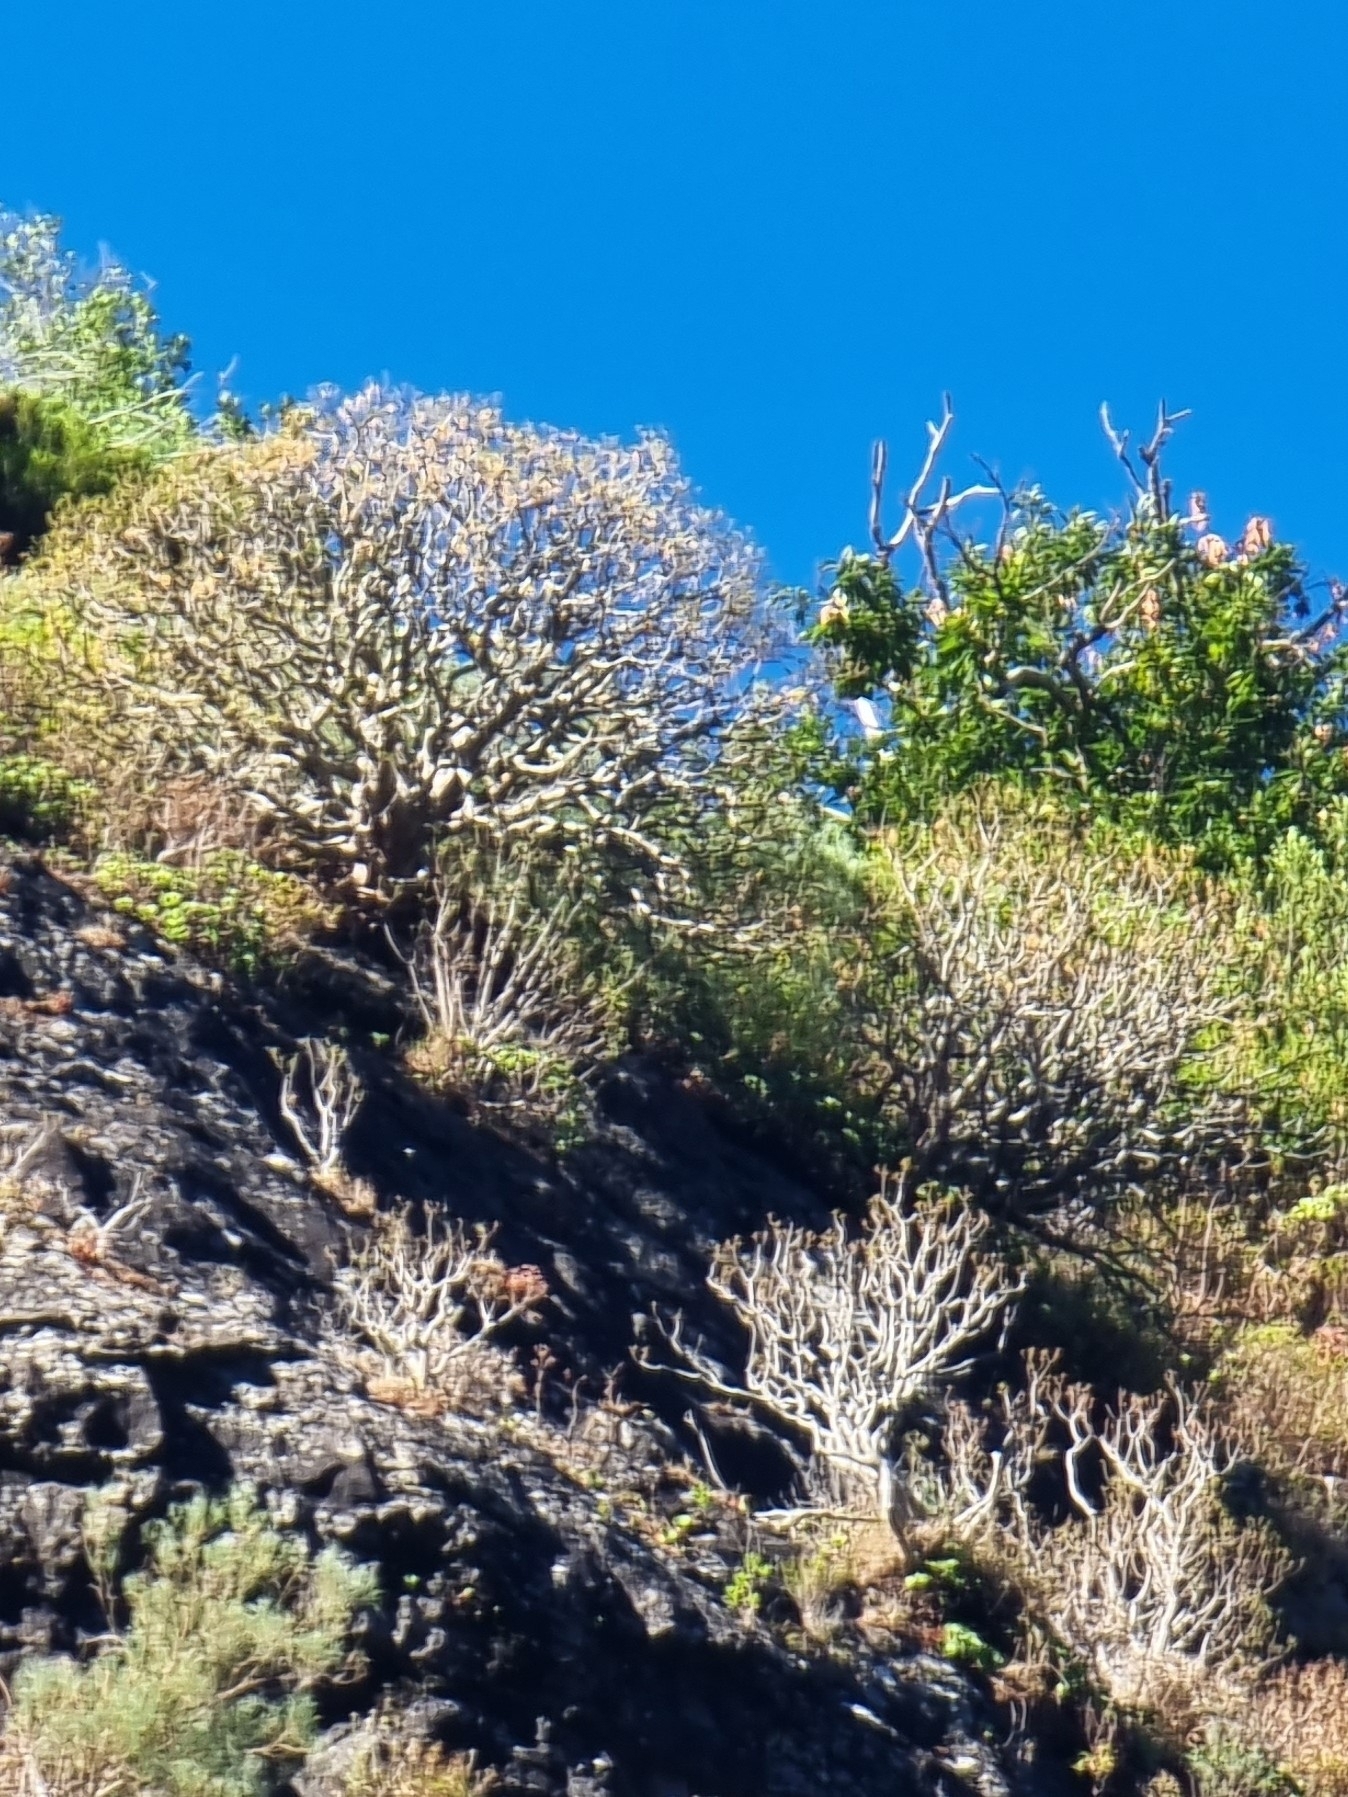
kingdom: Plantae
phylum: Tracheophyta
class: Magnoliopsida
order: Malpighiales
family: Euphorbiaceae
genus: Euphorbia
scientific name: Euphorbia piscatoria
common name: Fish-stunning spurge
